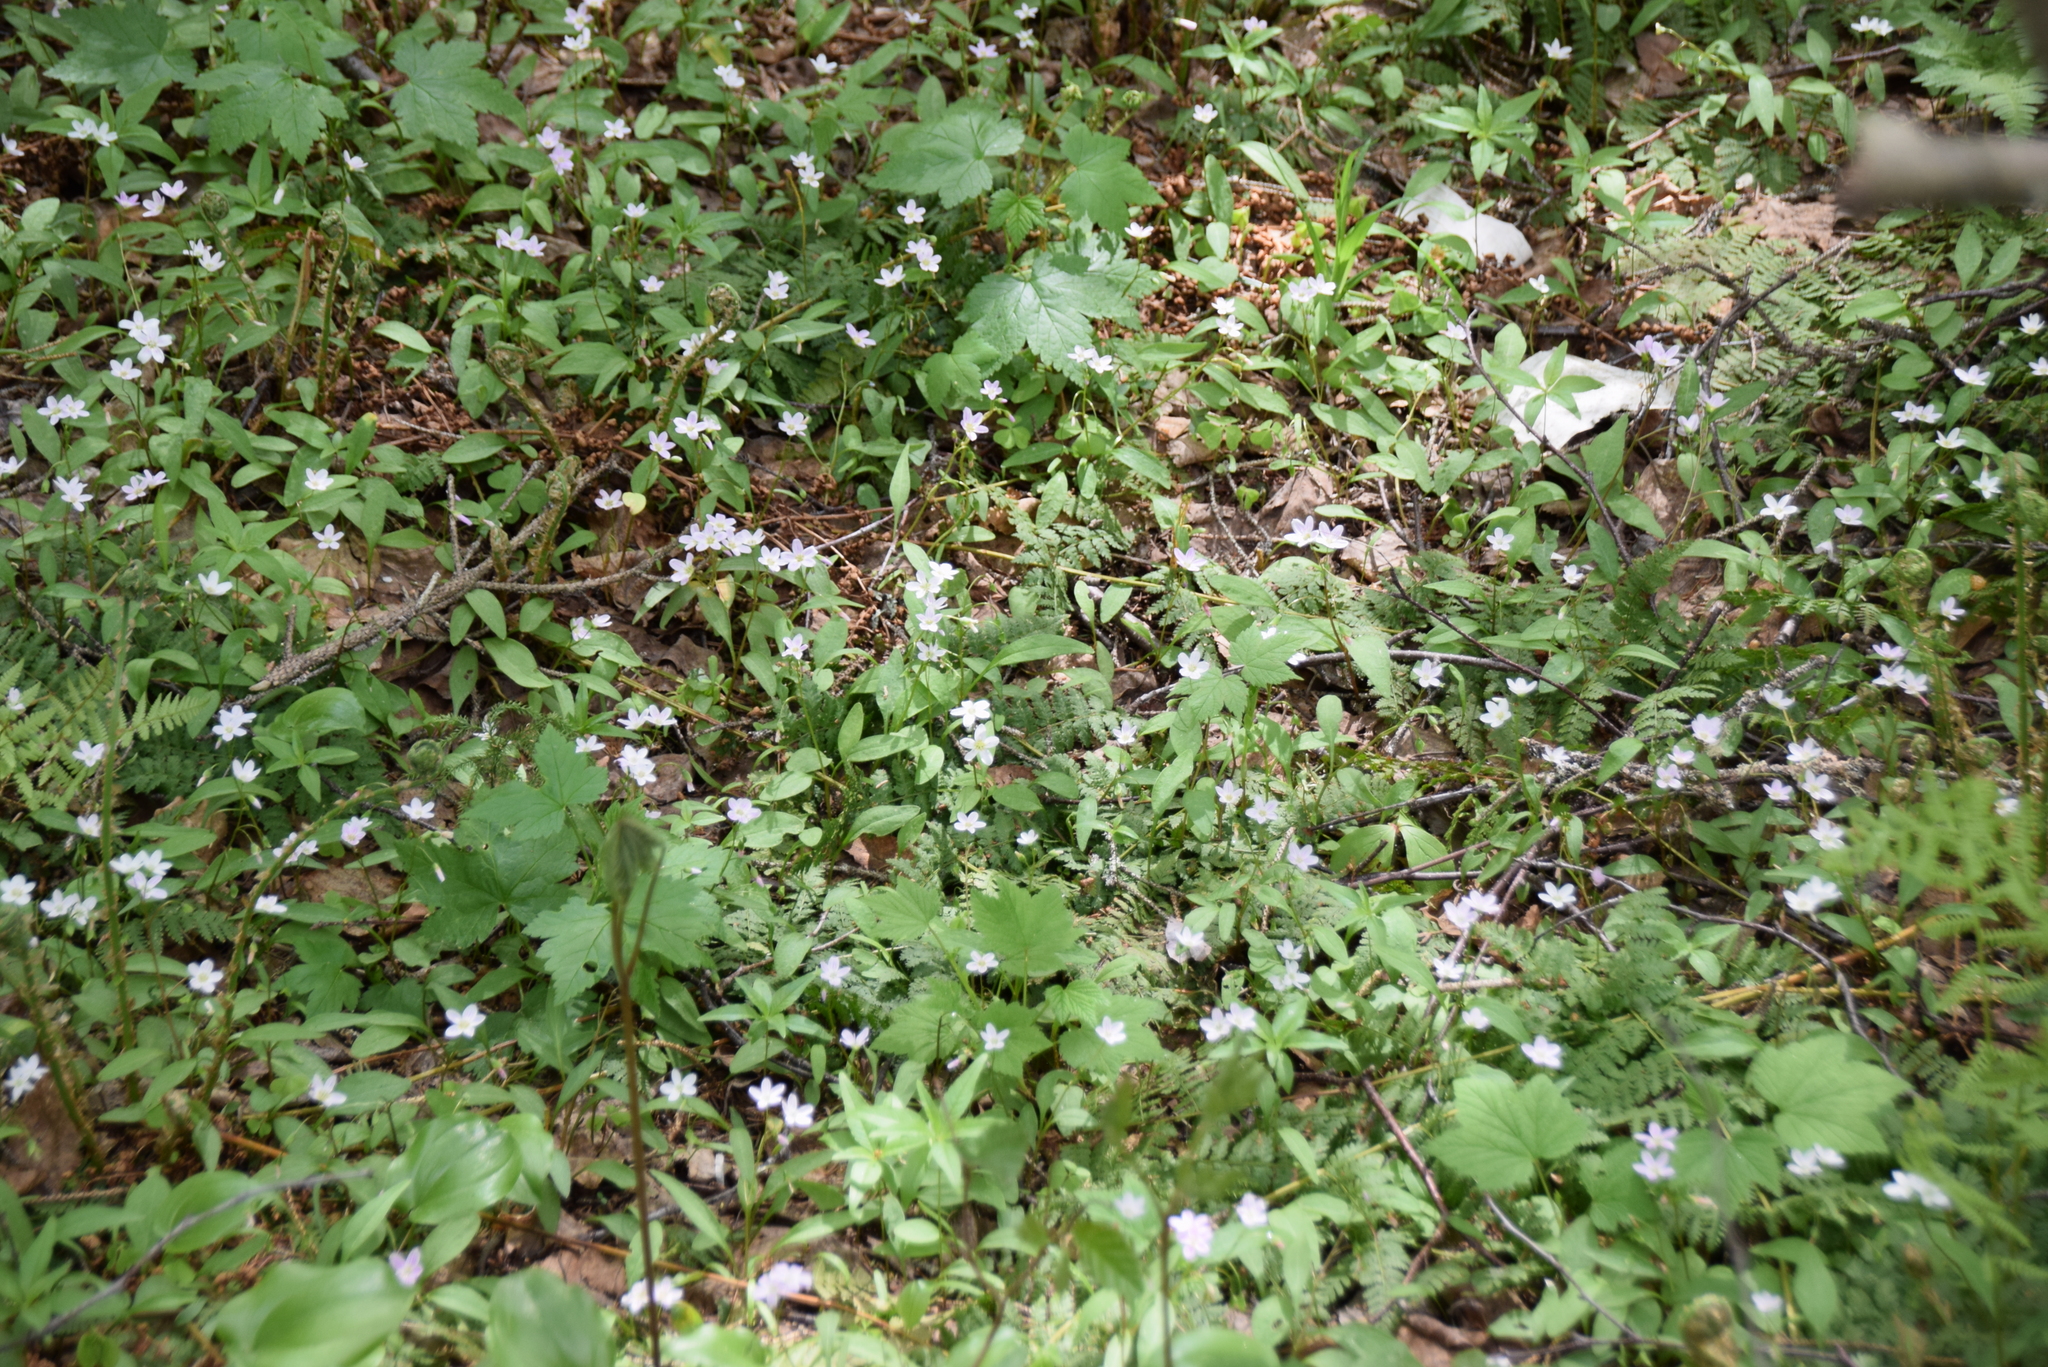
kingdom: Plantae
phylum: Tracheophyta
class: Magnoliopsida
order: Caryophyllales
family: Montiaceae
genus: Claytonia
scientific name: Claytonia caroliniana
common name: Carolina spring beauty
